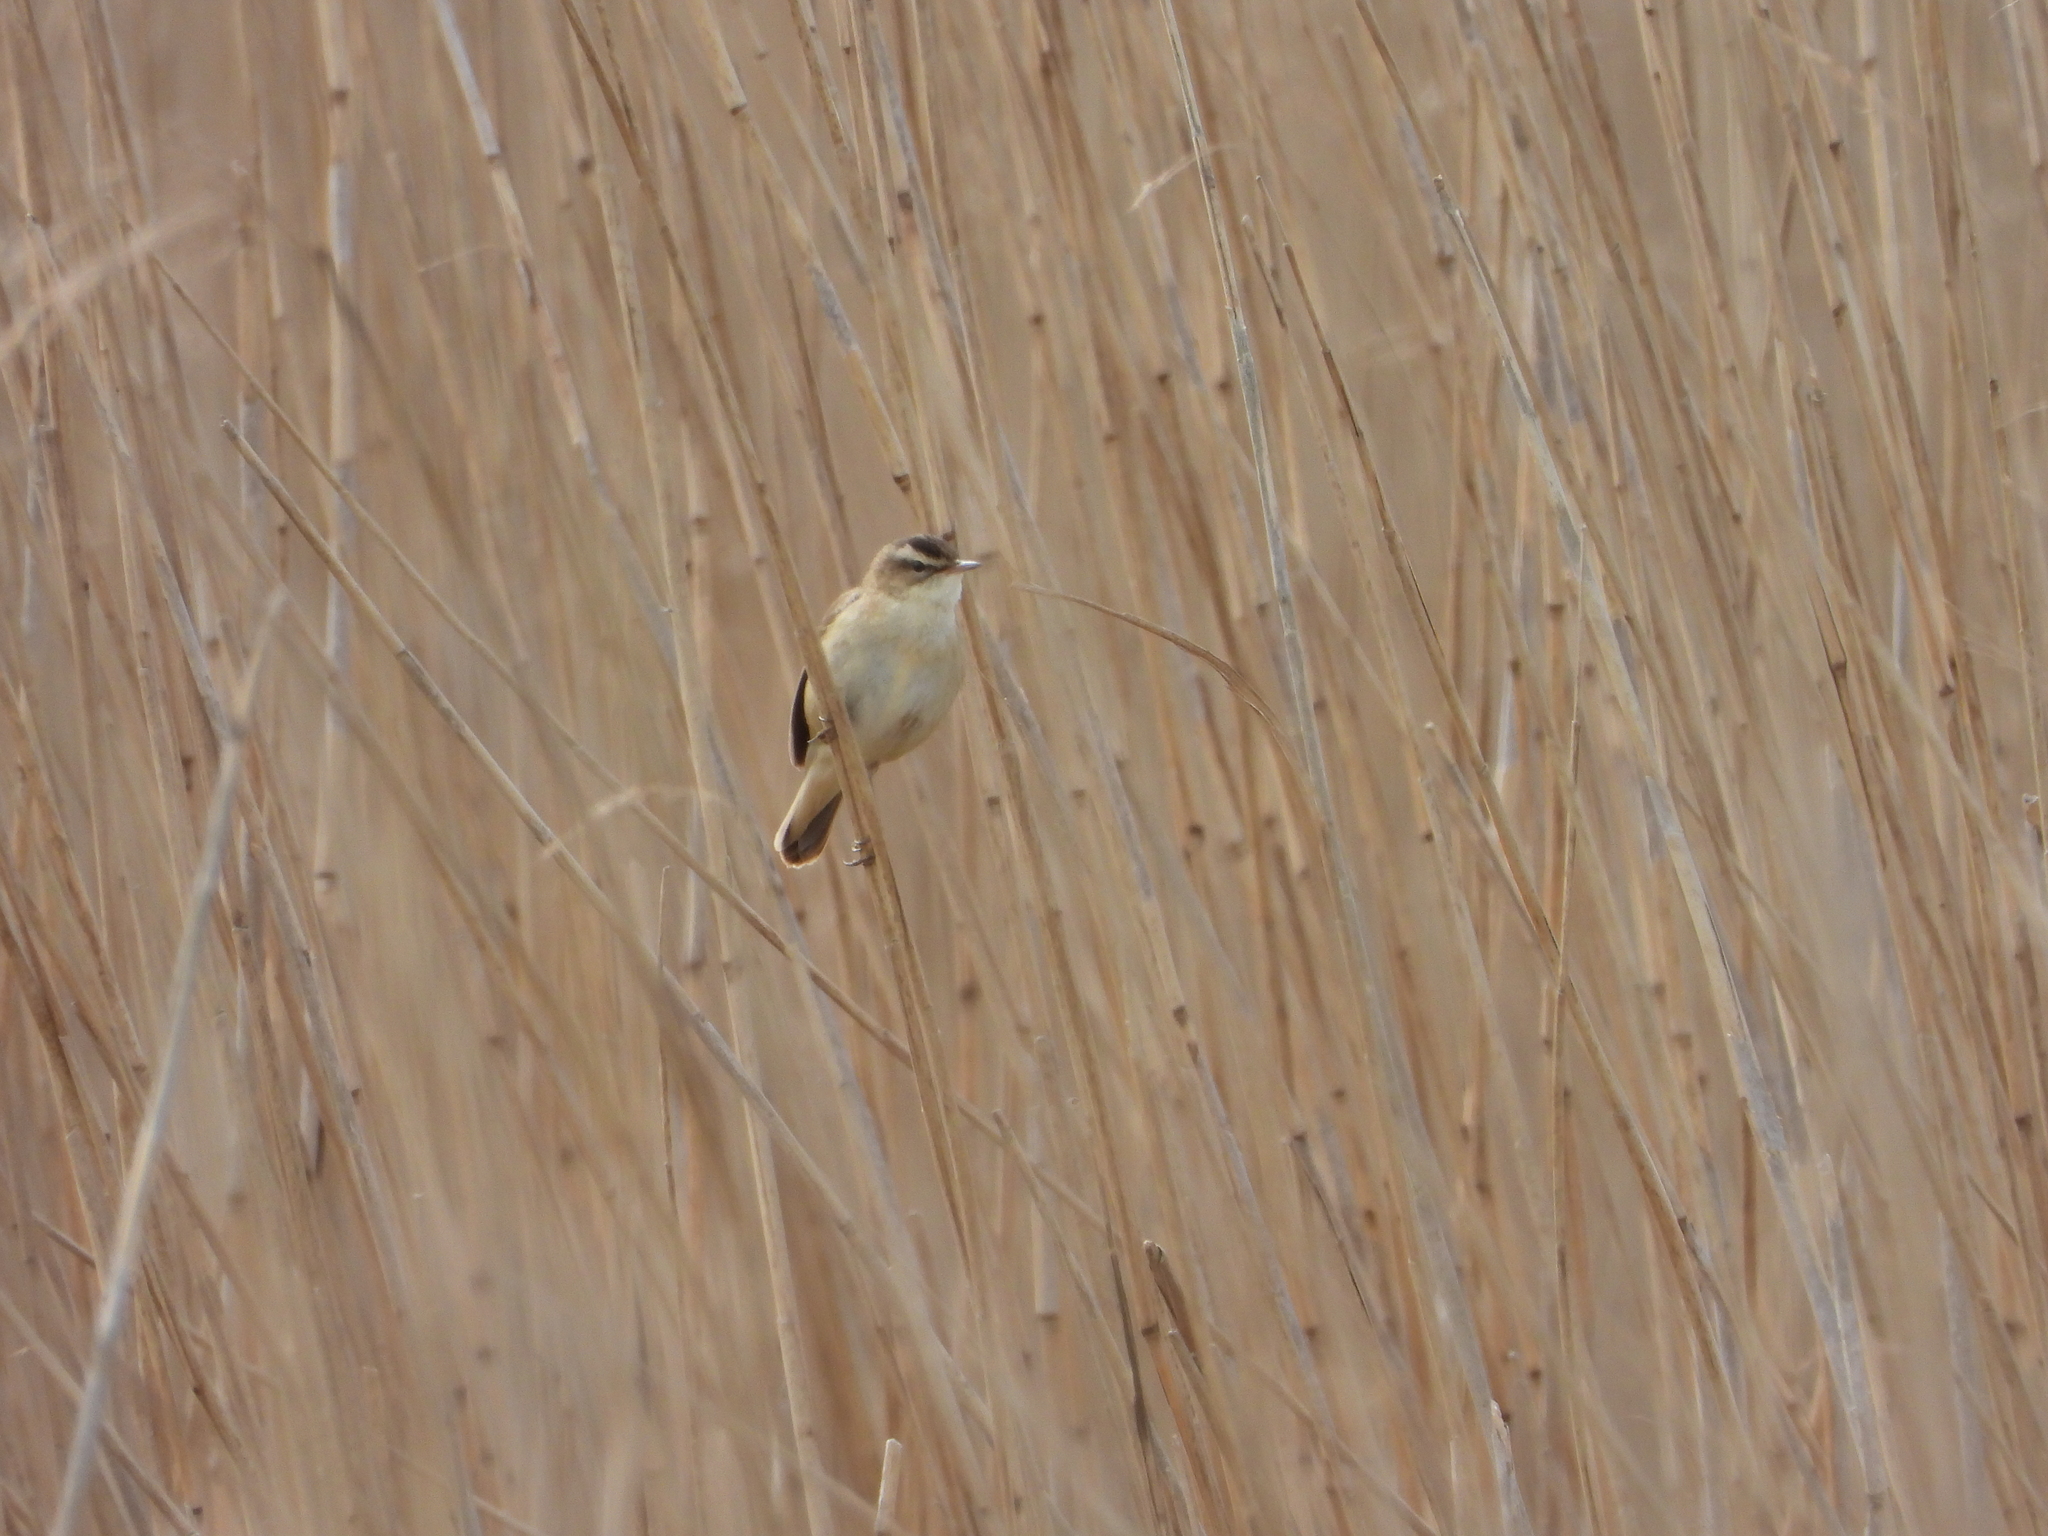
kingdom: Animalia
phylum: Chordata
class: Aves
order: Passeriformes
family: Acrocephalidae
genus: Acrocephalus
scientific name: Acrocephalus schoenobaenus
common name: Sedge warbler
